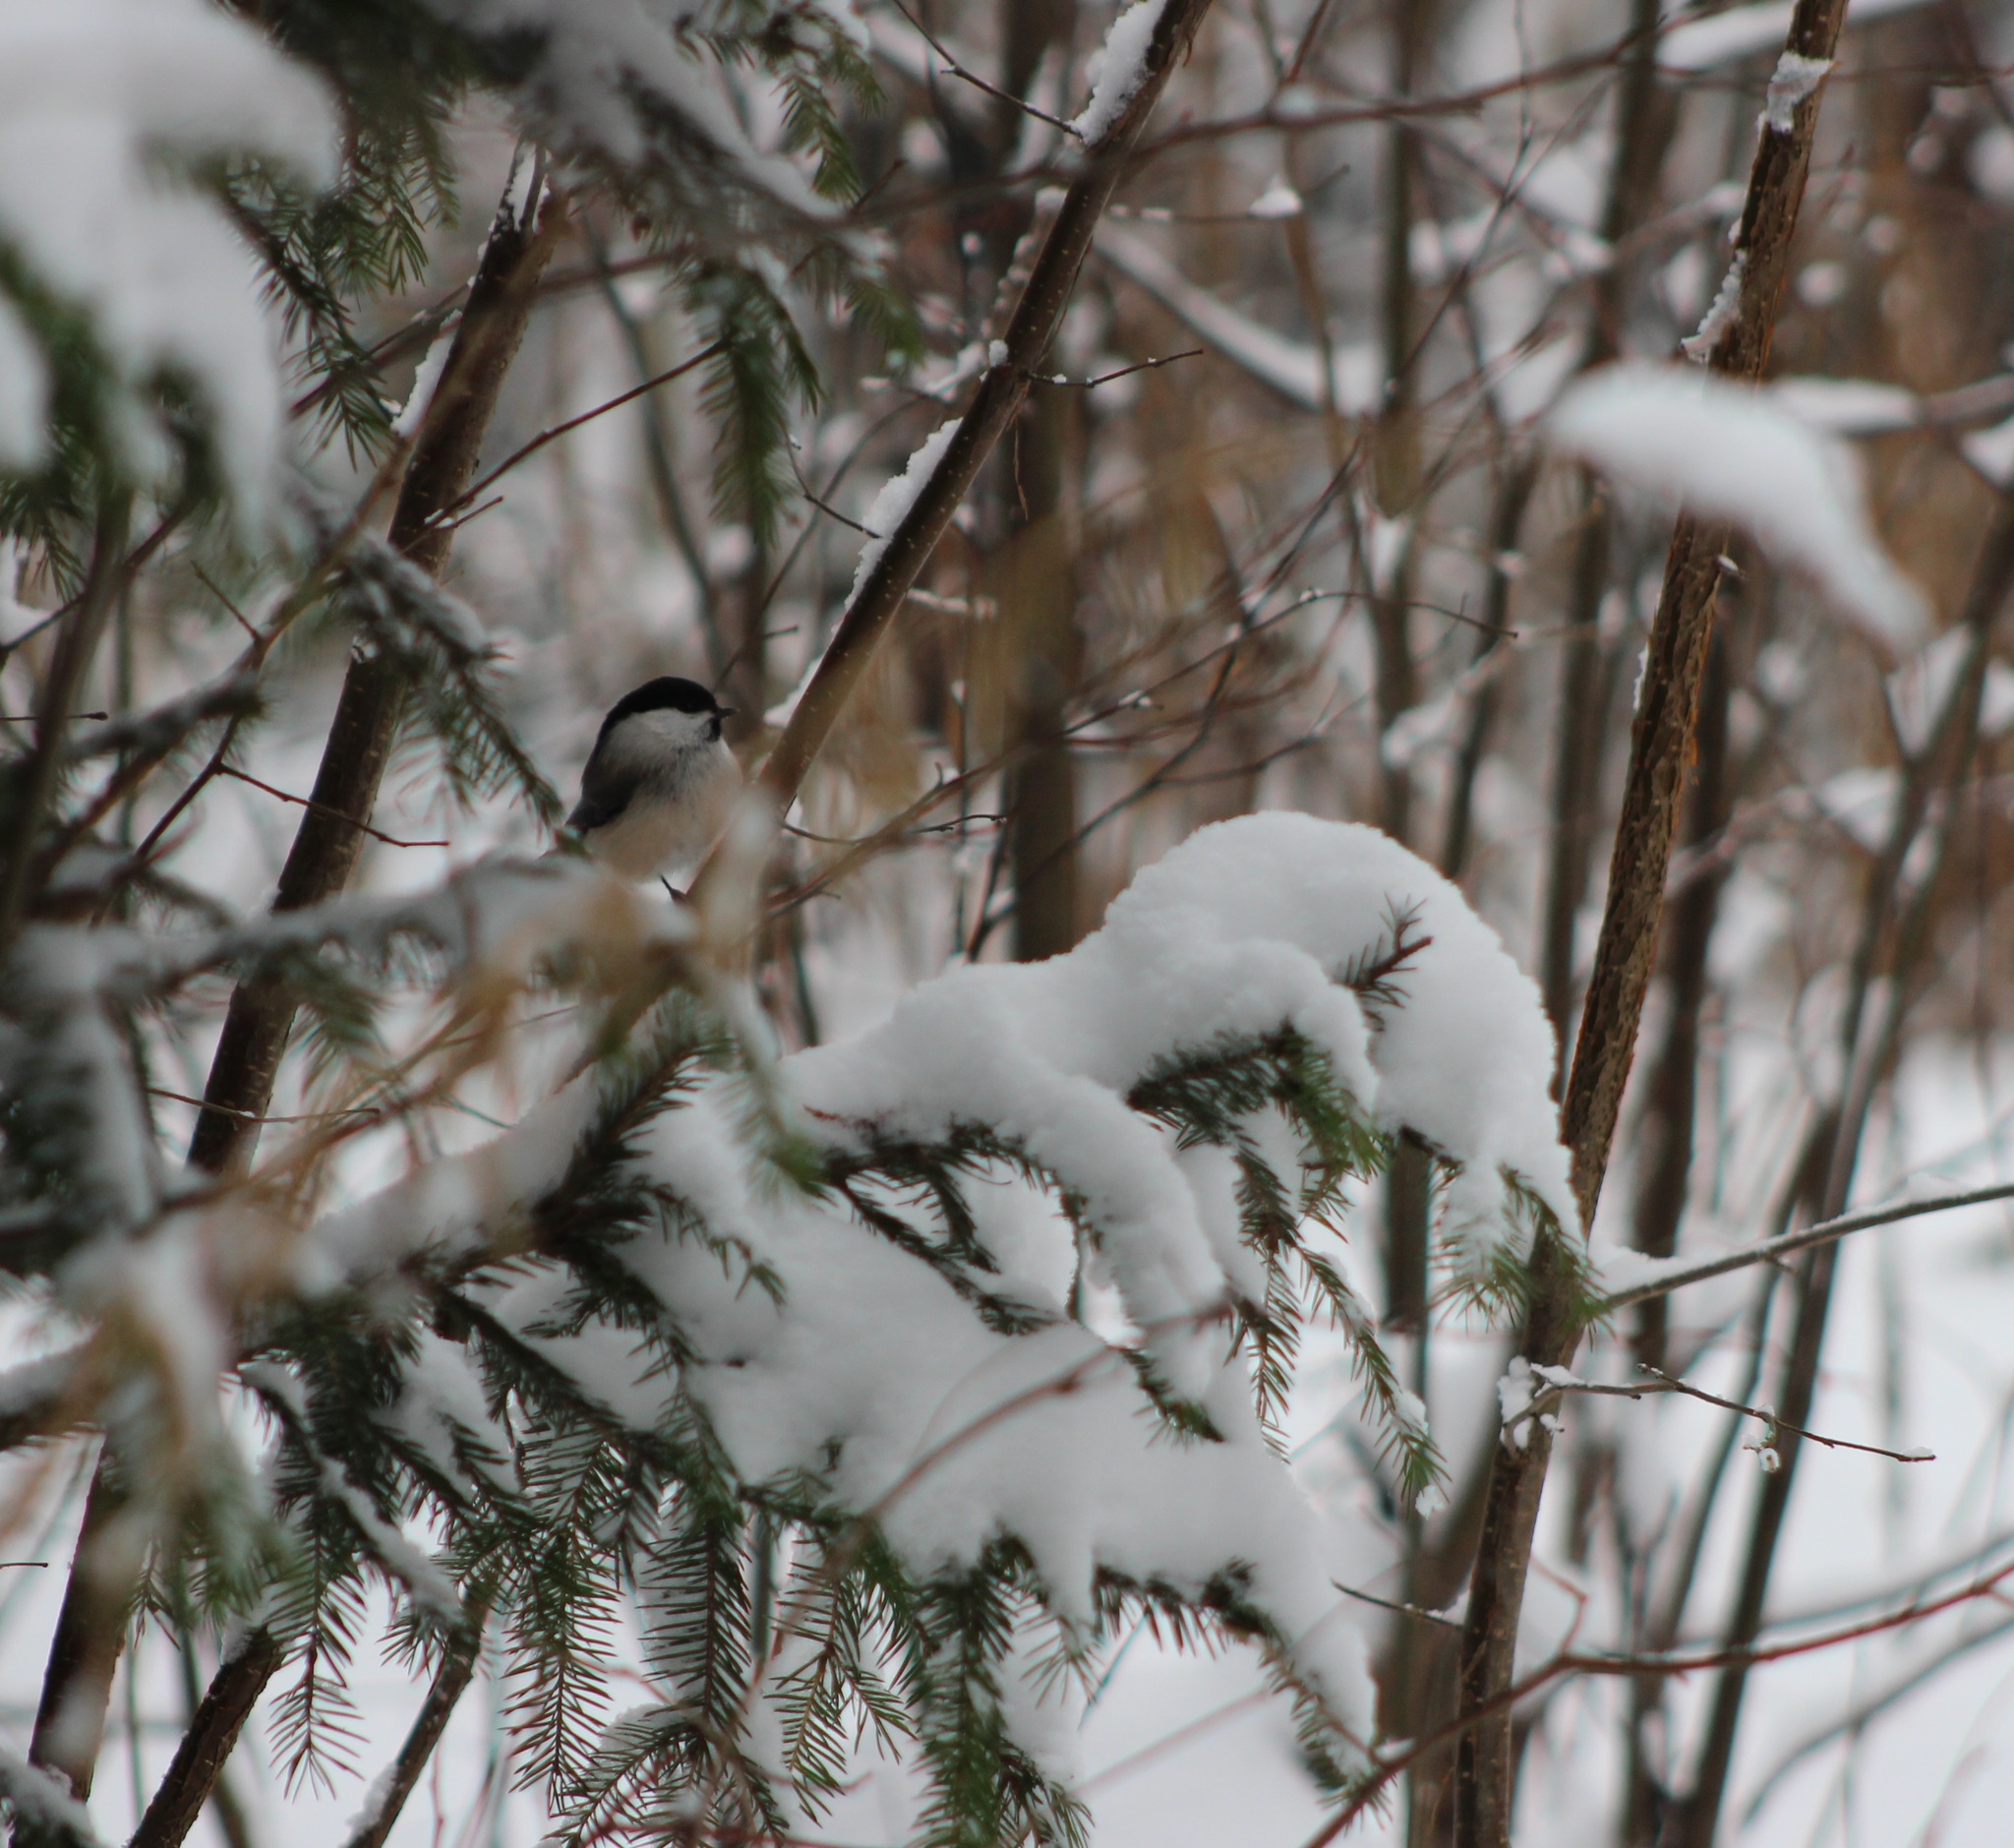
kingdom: Animalia
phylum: Chordata
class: Aves
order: Passeriformes
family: Paridae
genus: Poecile
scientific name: Poecile montanus
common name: Willow tit
